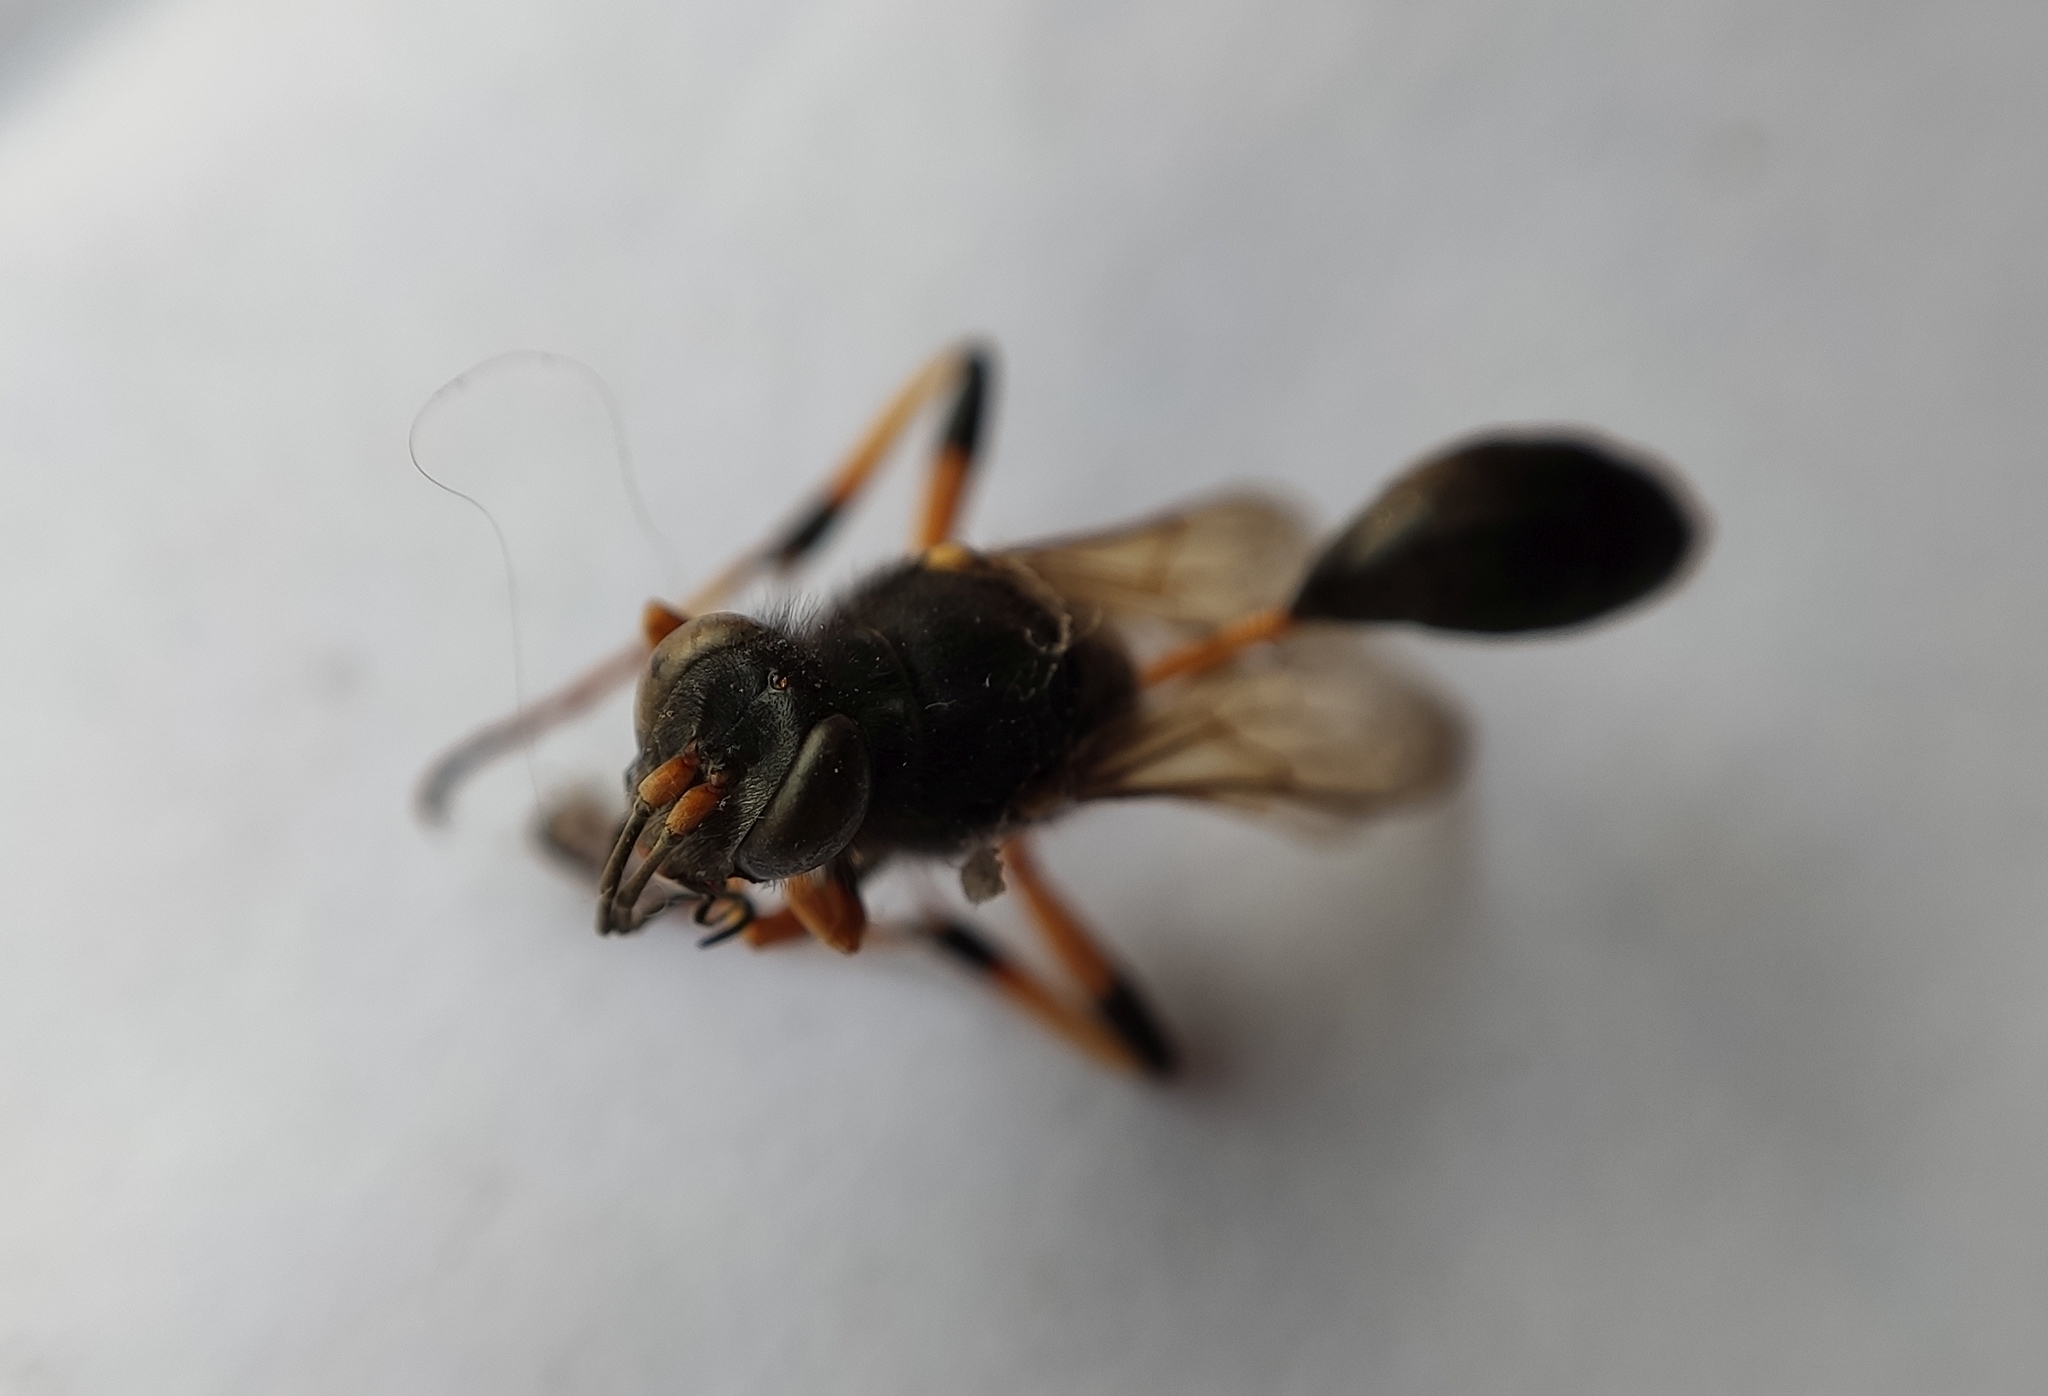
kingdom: Animalia
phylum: Arthropoda
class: Insecta
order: Hymenoptera
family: Sphecidae
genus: Sceliphron
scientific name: Sceliphron destillatorium
